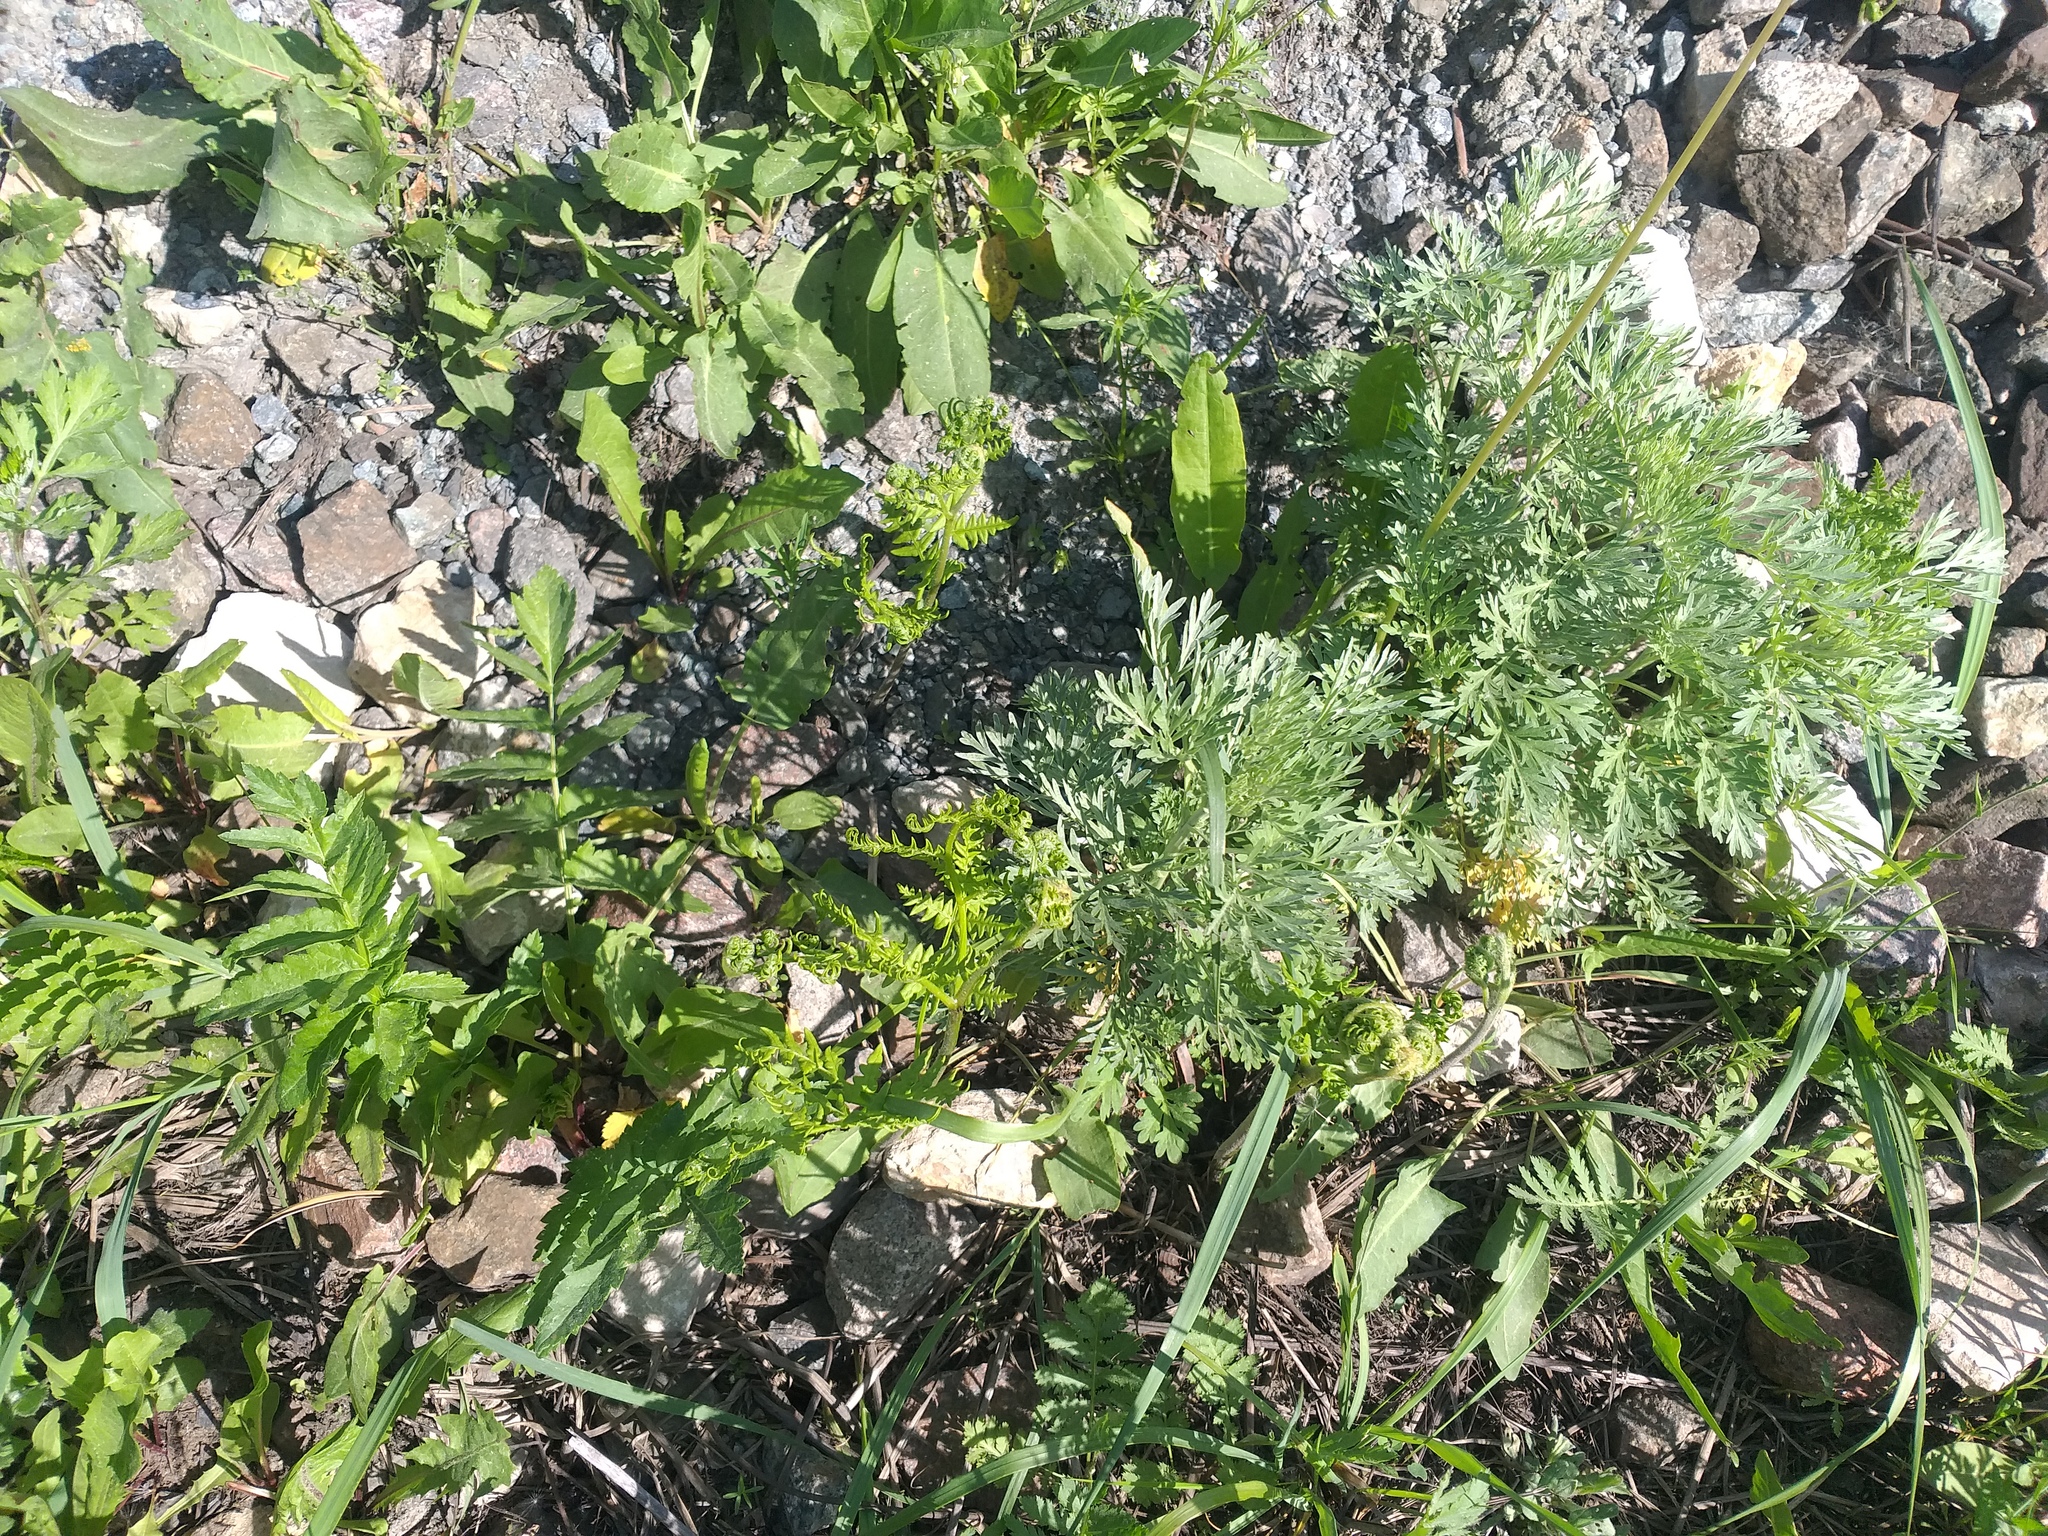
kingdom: Plantae
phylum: Tracheophyta
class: Polypodiopsida
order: Polypodiales
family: Dennstaedtiaceae
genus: Pteridium
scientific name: Pteridium aquilinum
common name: Bracken
